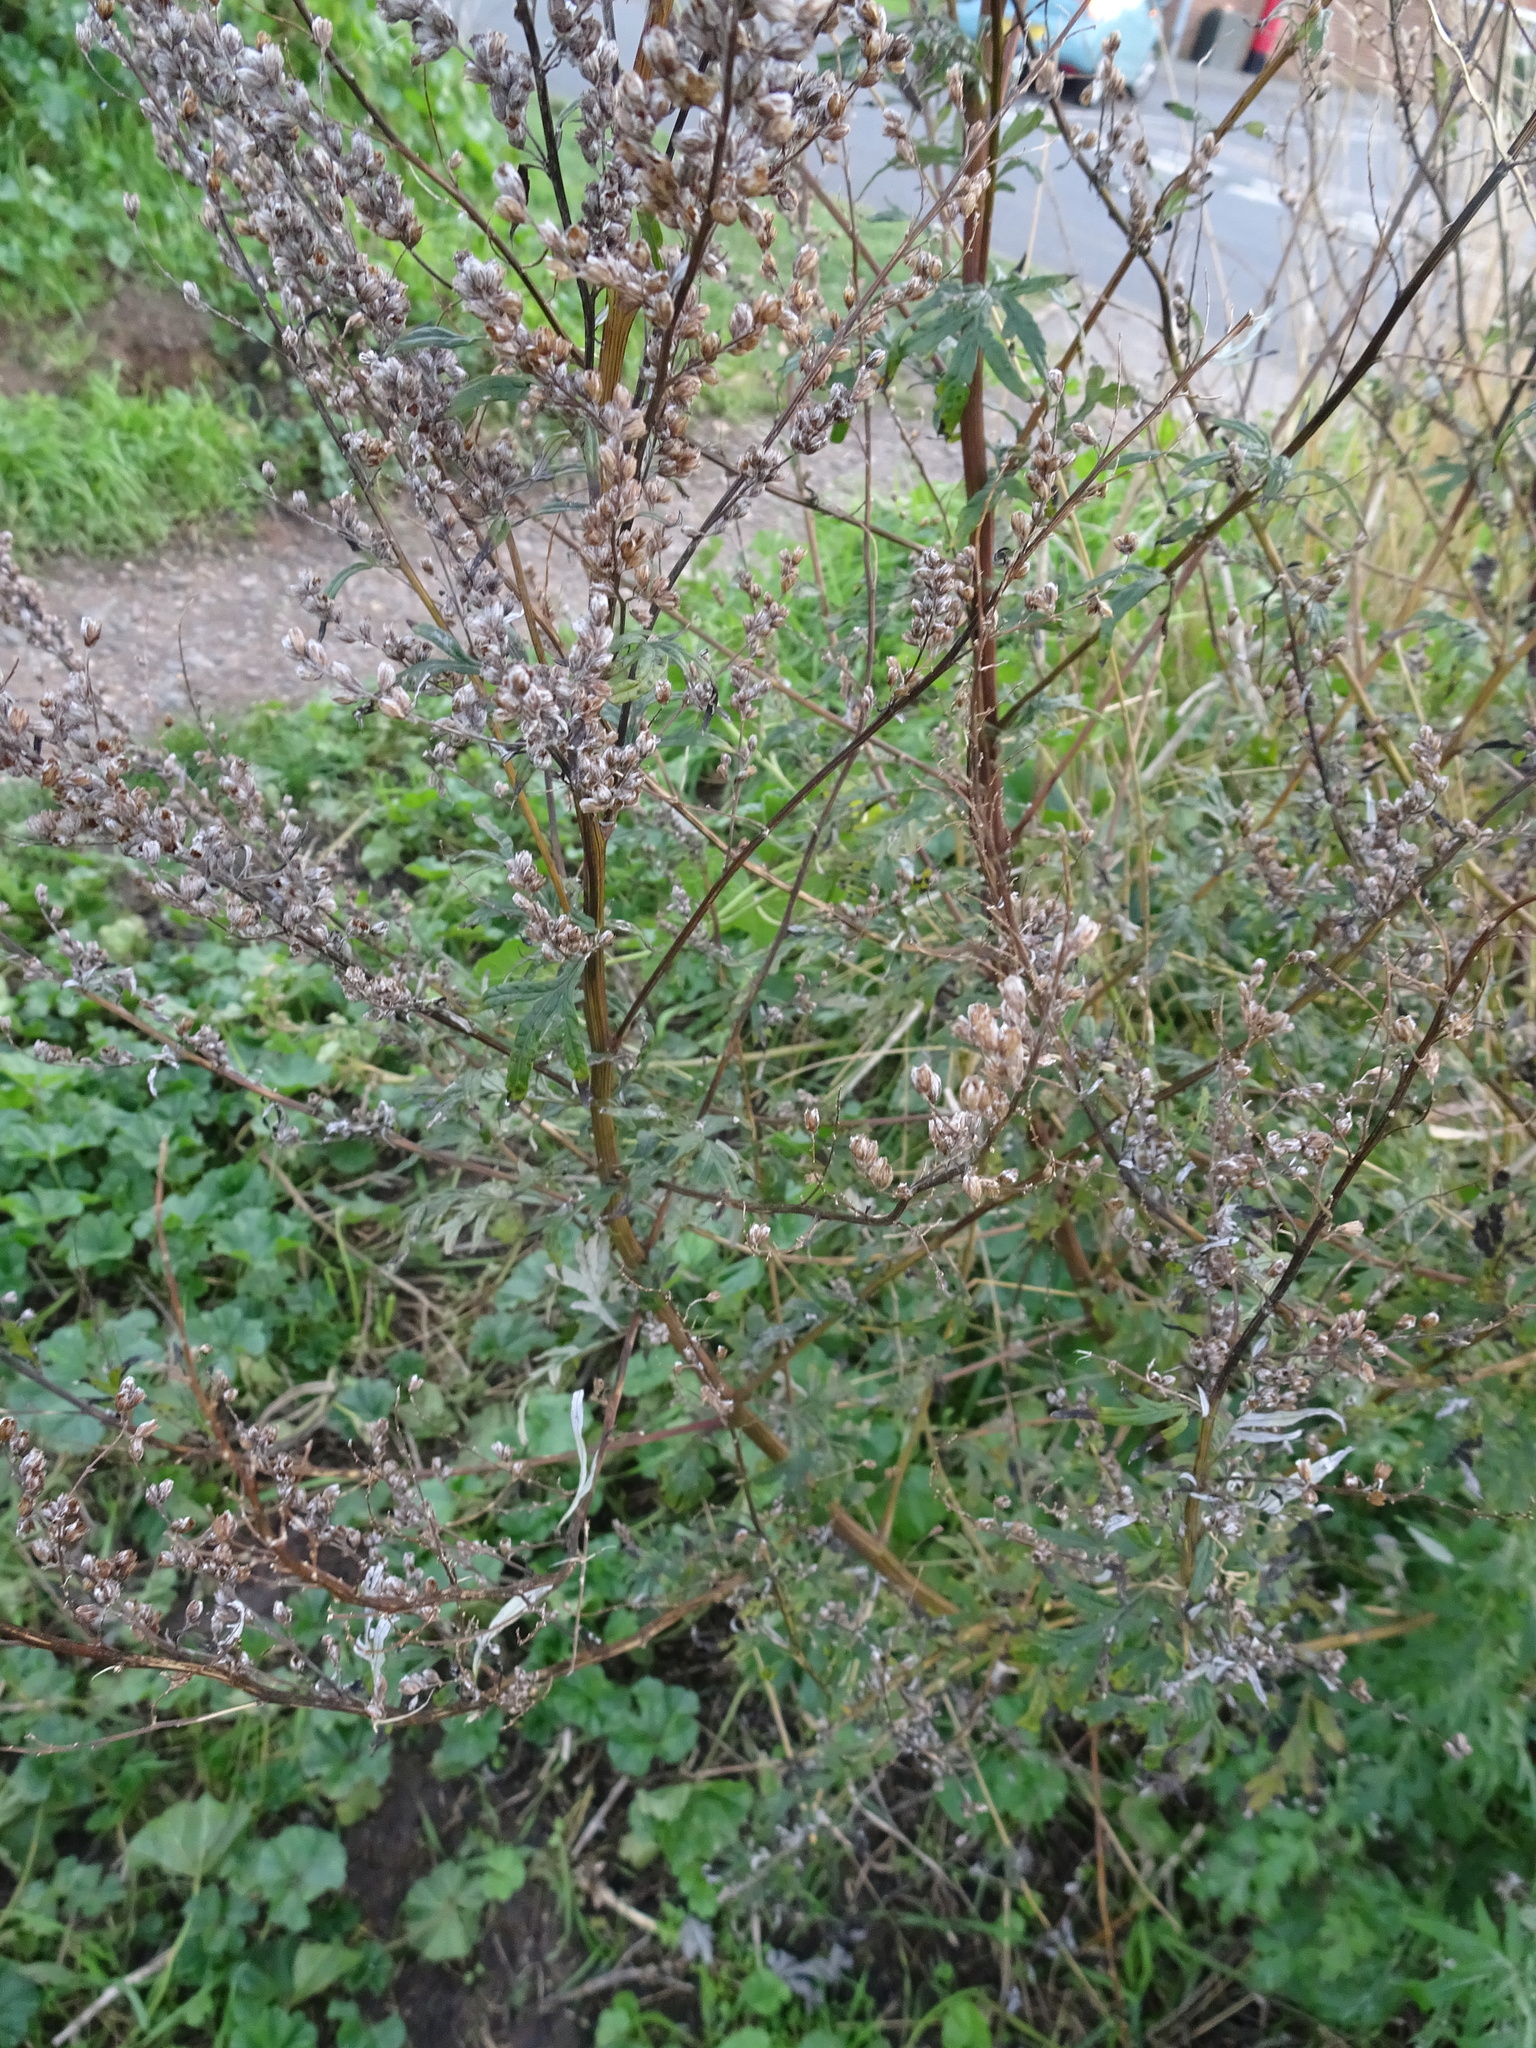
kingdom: Plantae
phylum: Tracheophyta
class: Magnoliopsida
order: Asterales
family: Asteraceae
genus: Artemisia
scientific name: Artemisia vulgaris
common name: Mugwort
